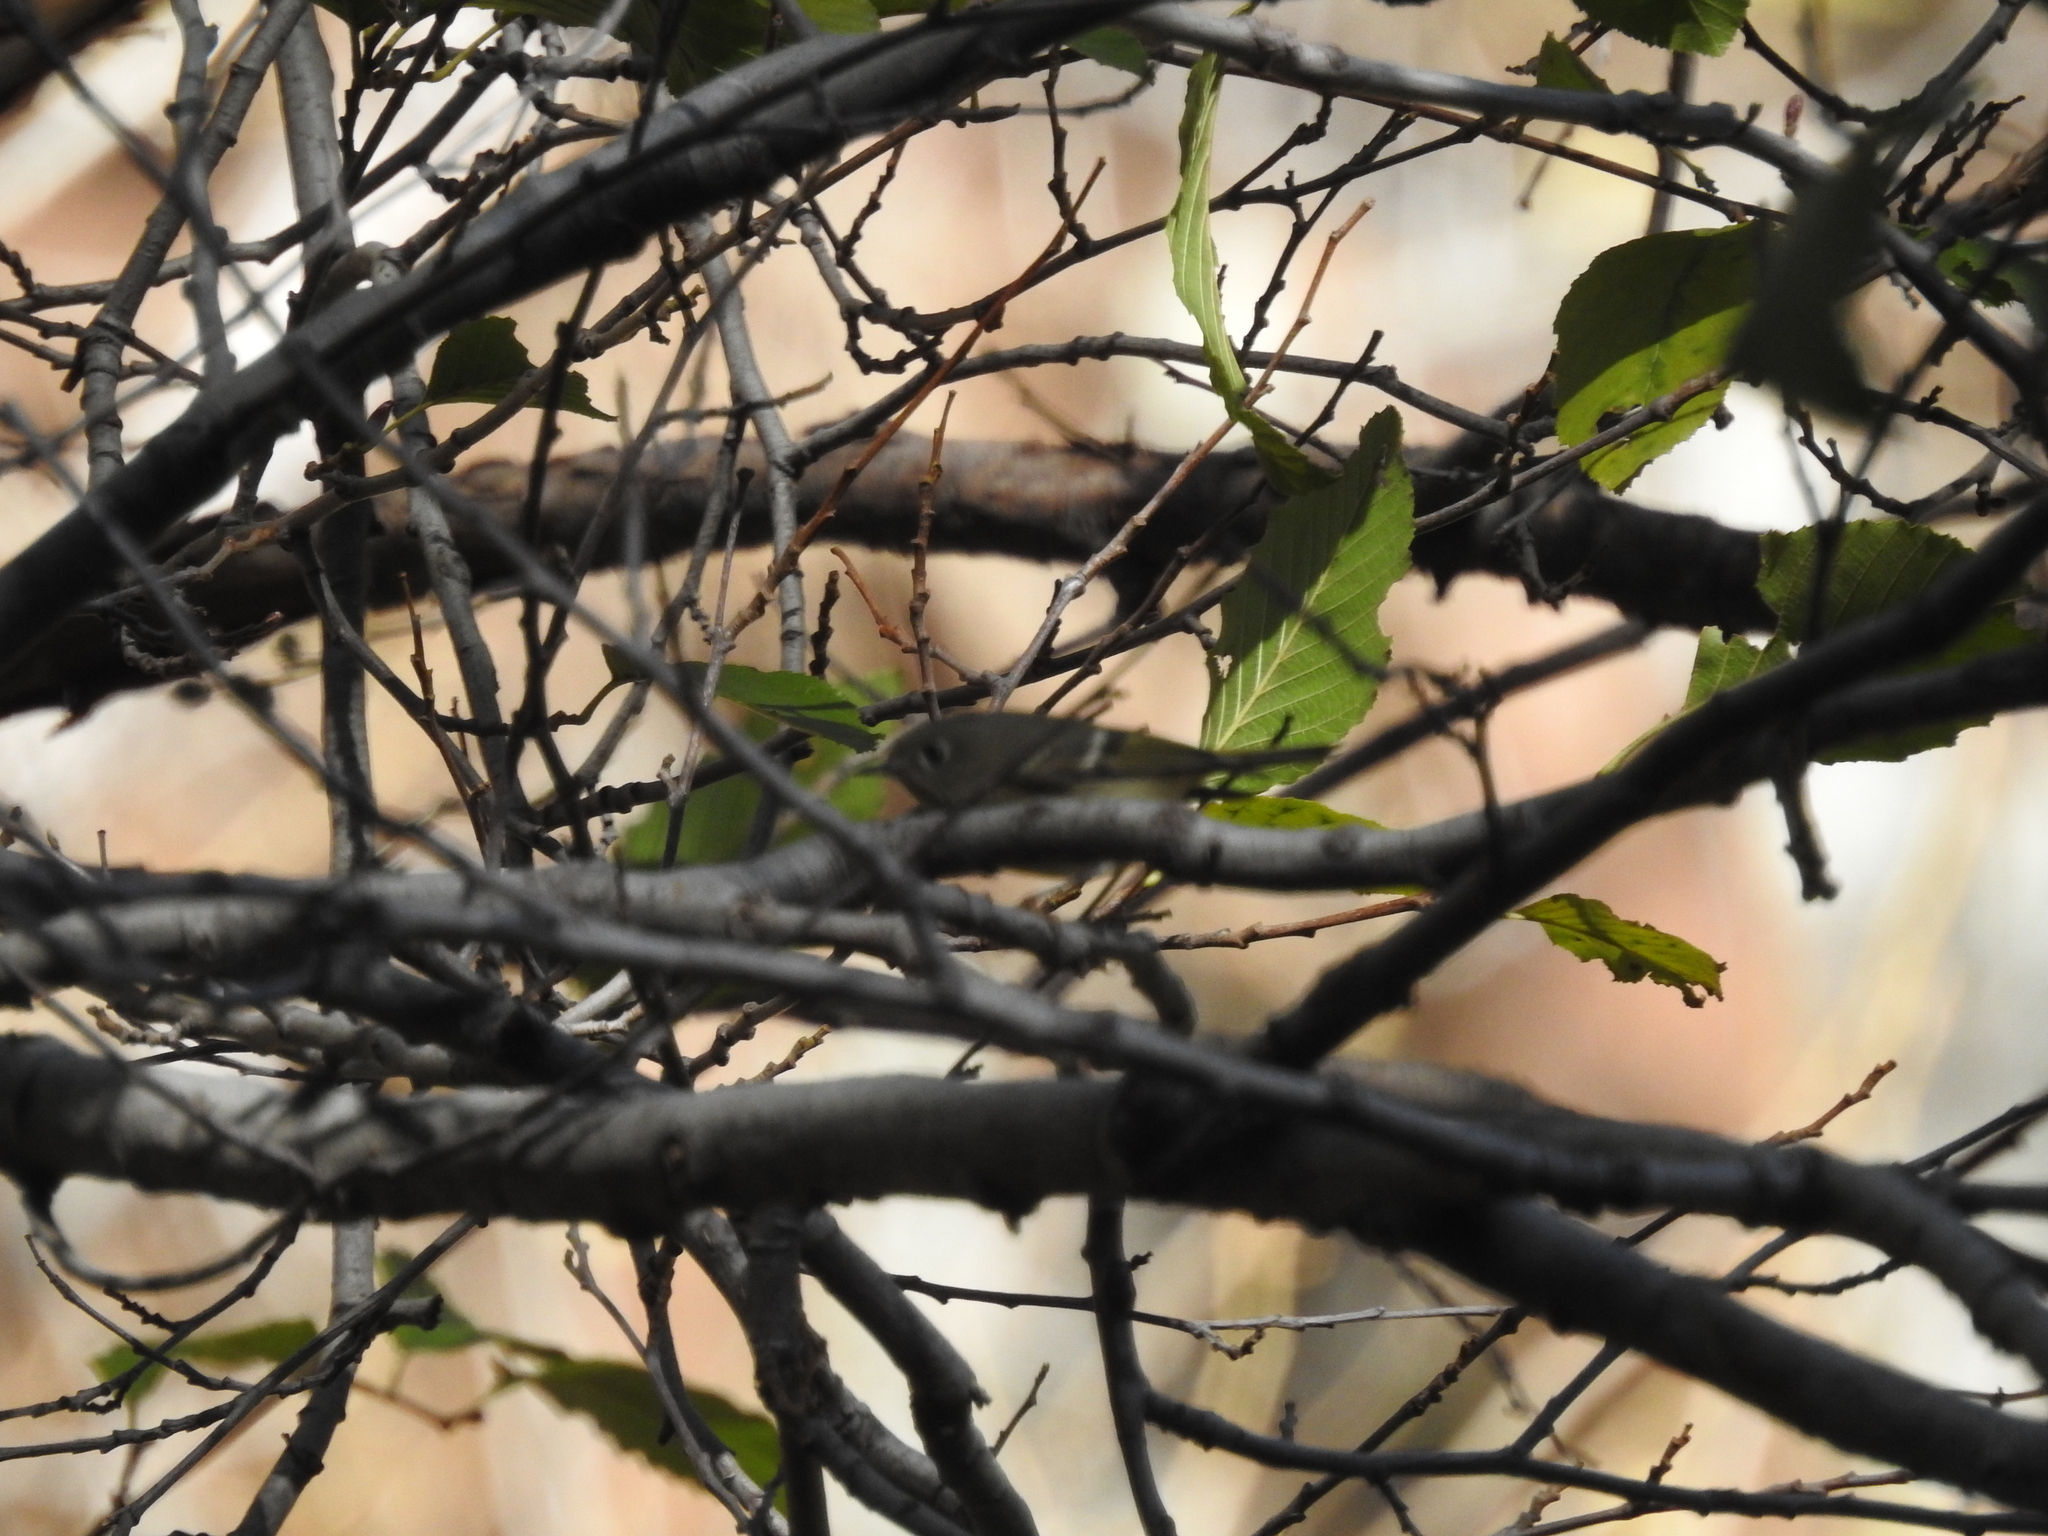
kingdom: Animalia
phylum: Chordata
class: Aves
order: Passeriformes
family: Regulidae
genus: Regulus
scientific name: Regulus calendula
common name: Ruby-crowned kinglet
